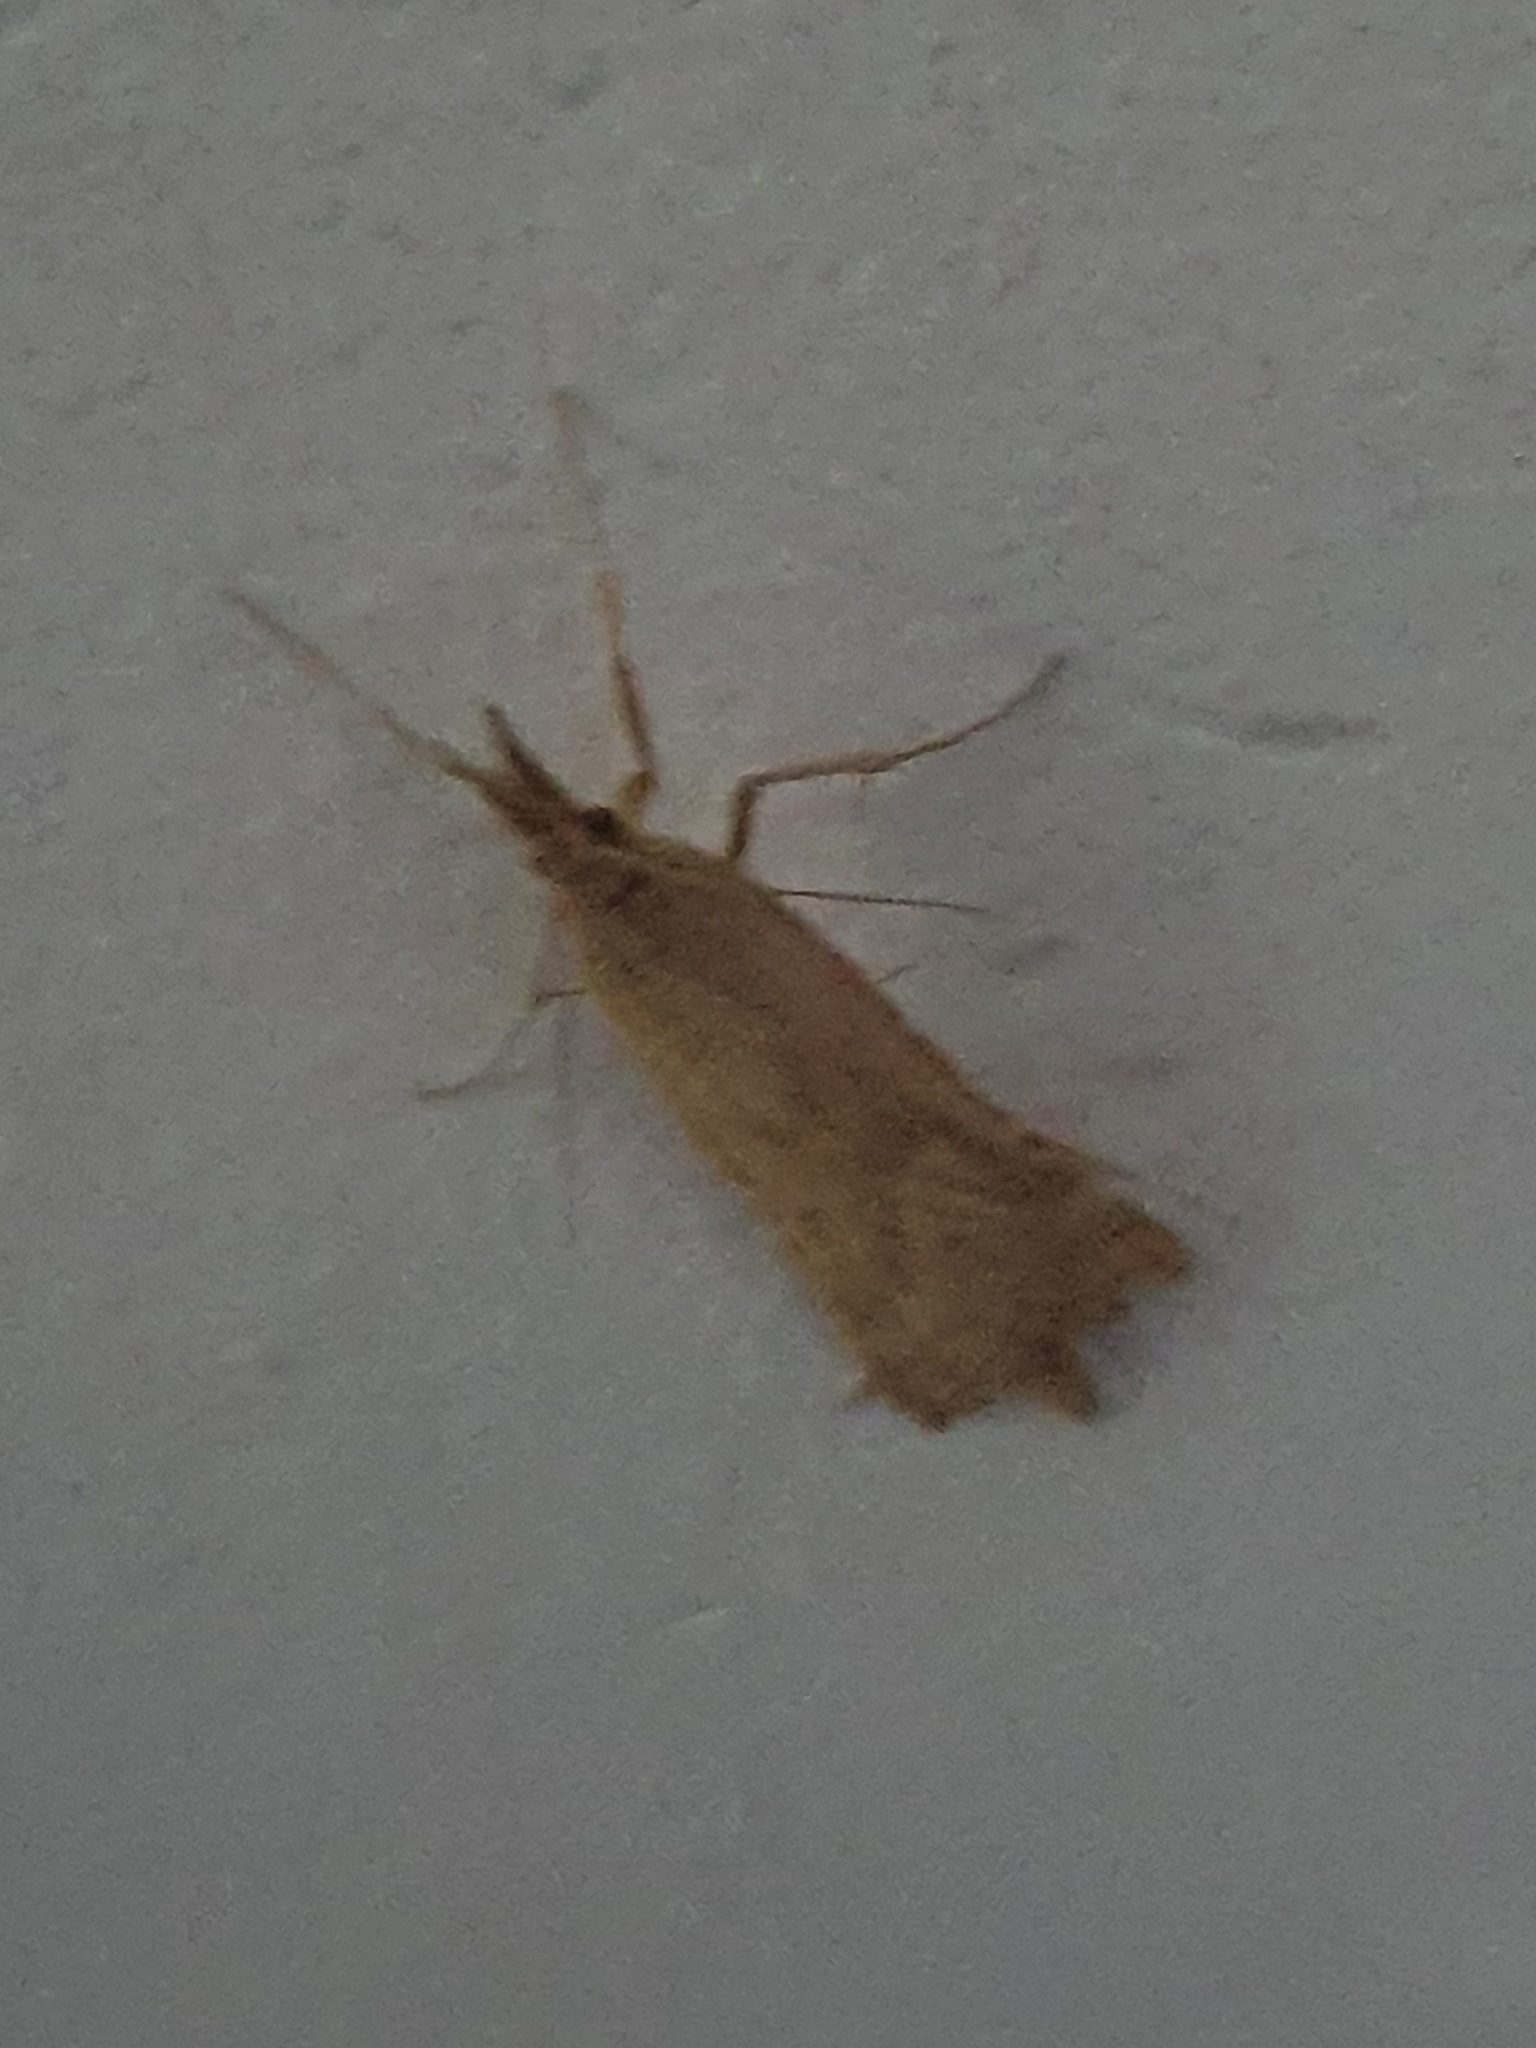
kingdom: Animalia
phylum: Arthropoda
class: Insecta
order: Lepidoptera
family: Pyralidae
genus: Synaphe
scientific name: Synaphe punctalis
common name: Long-legged tabby
